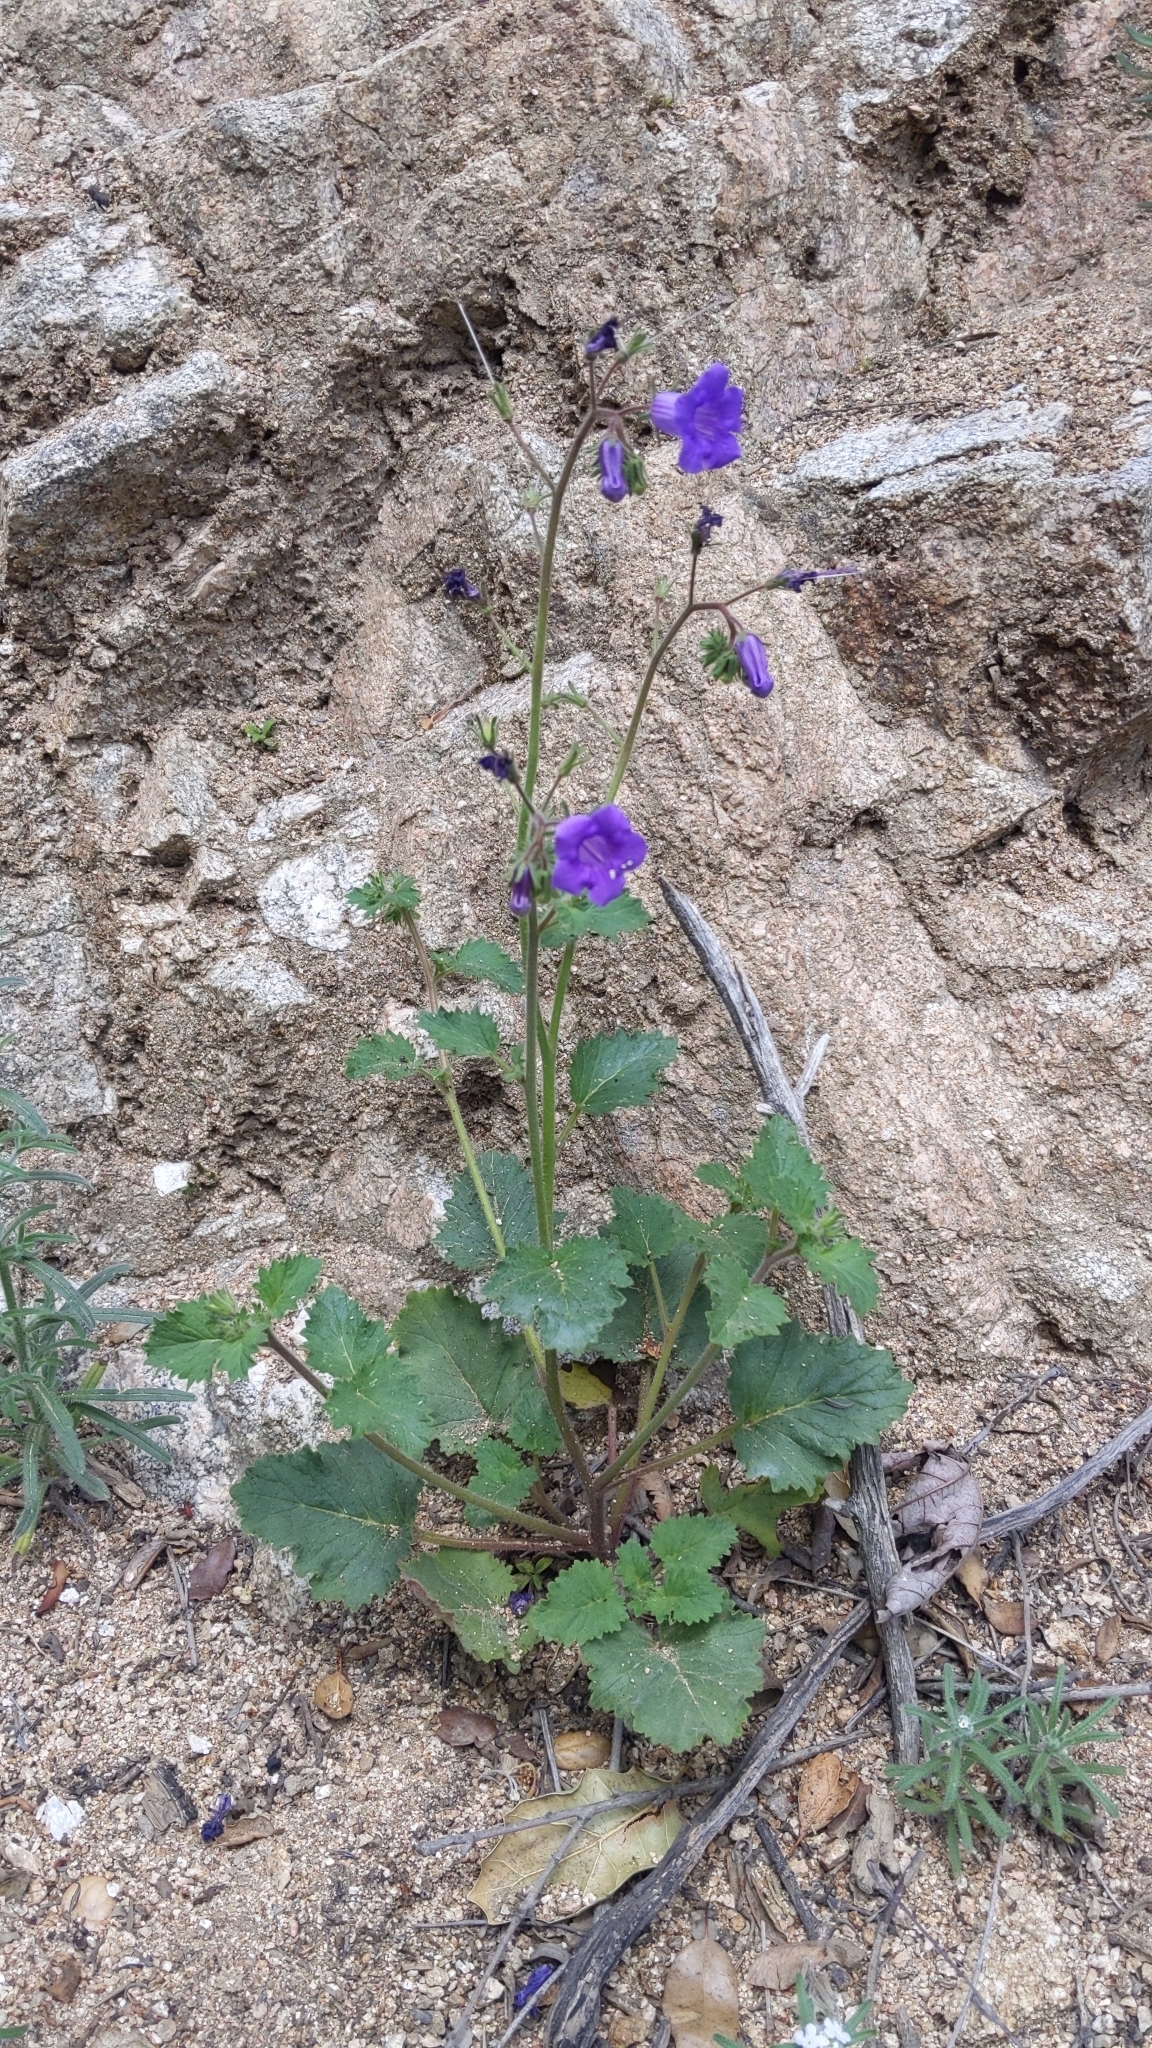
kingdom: Plantae
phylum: Tracheophyta
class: Magnoliopsida
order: Boraginales
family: Hydrophyllaceae
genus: Phacelia
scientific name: Phacelia minor
